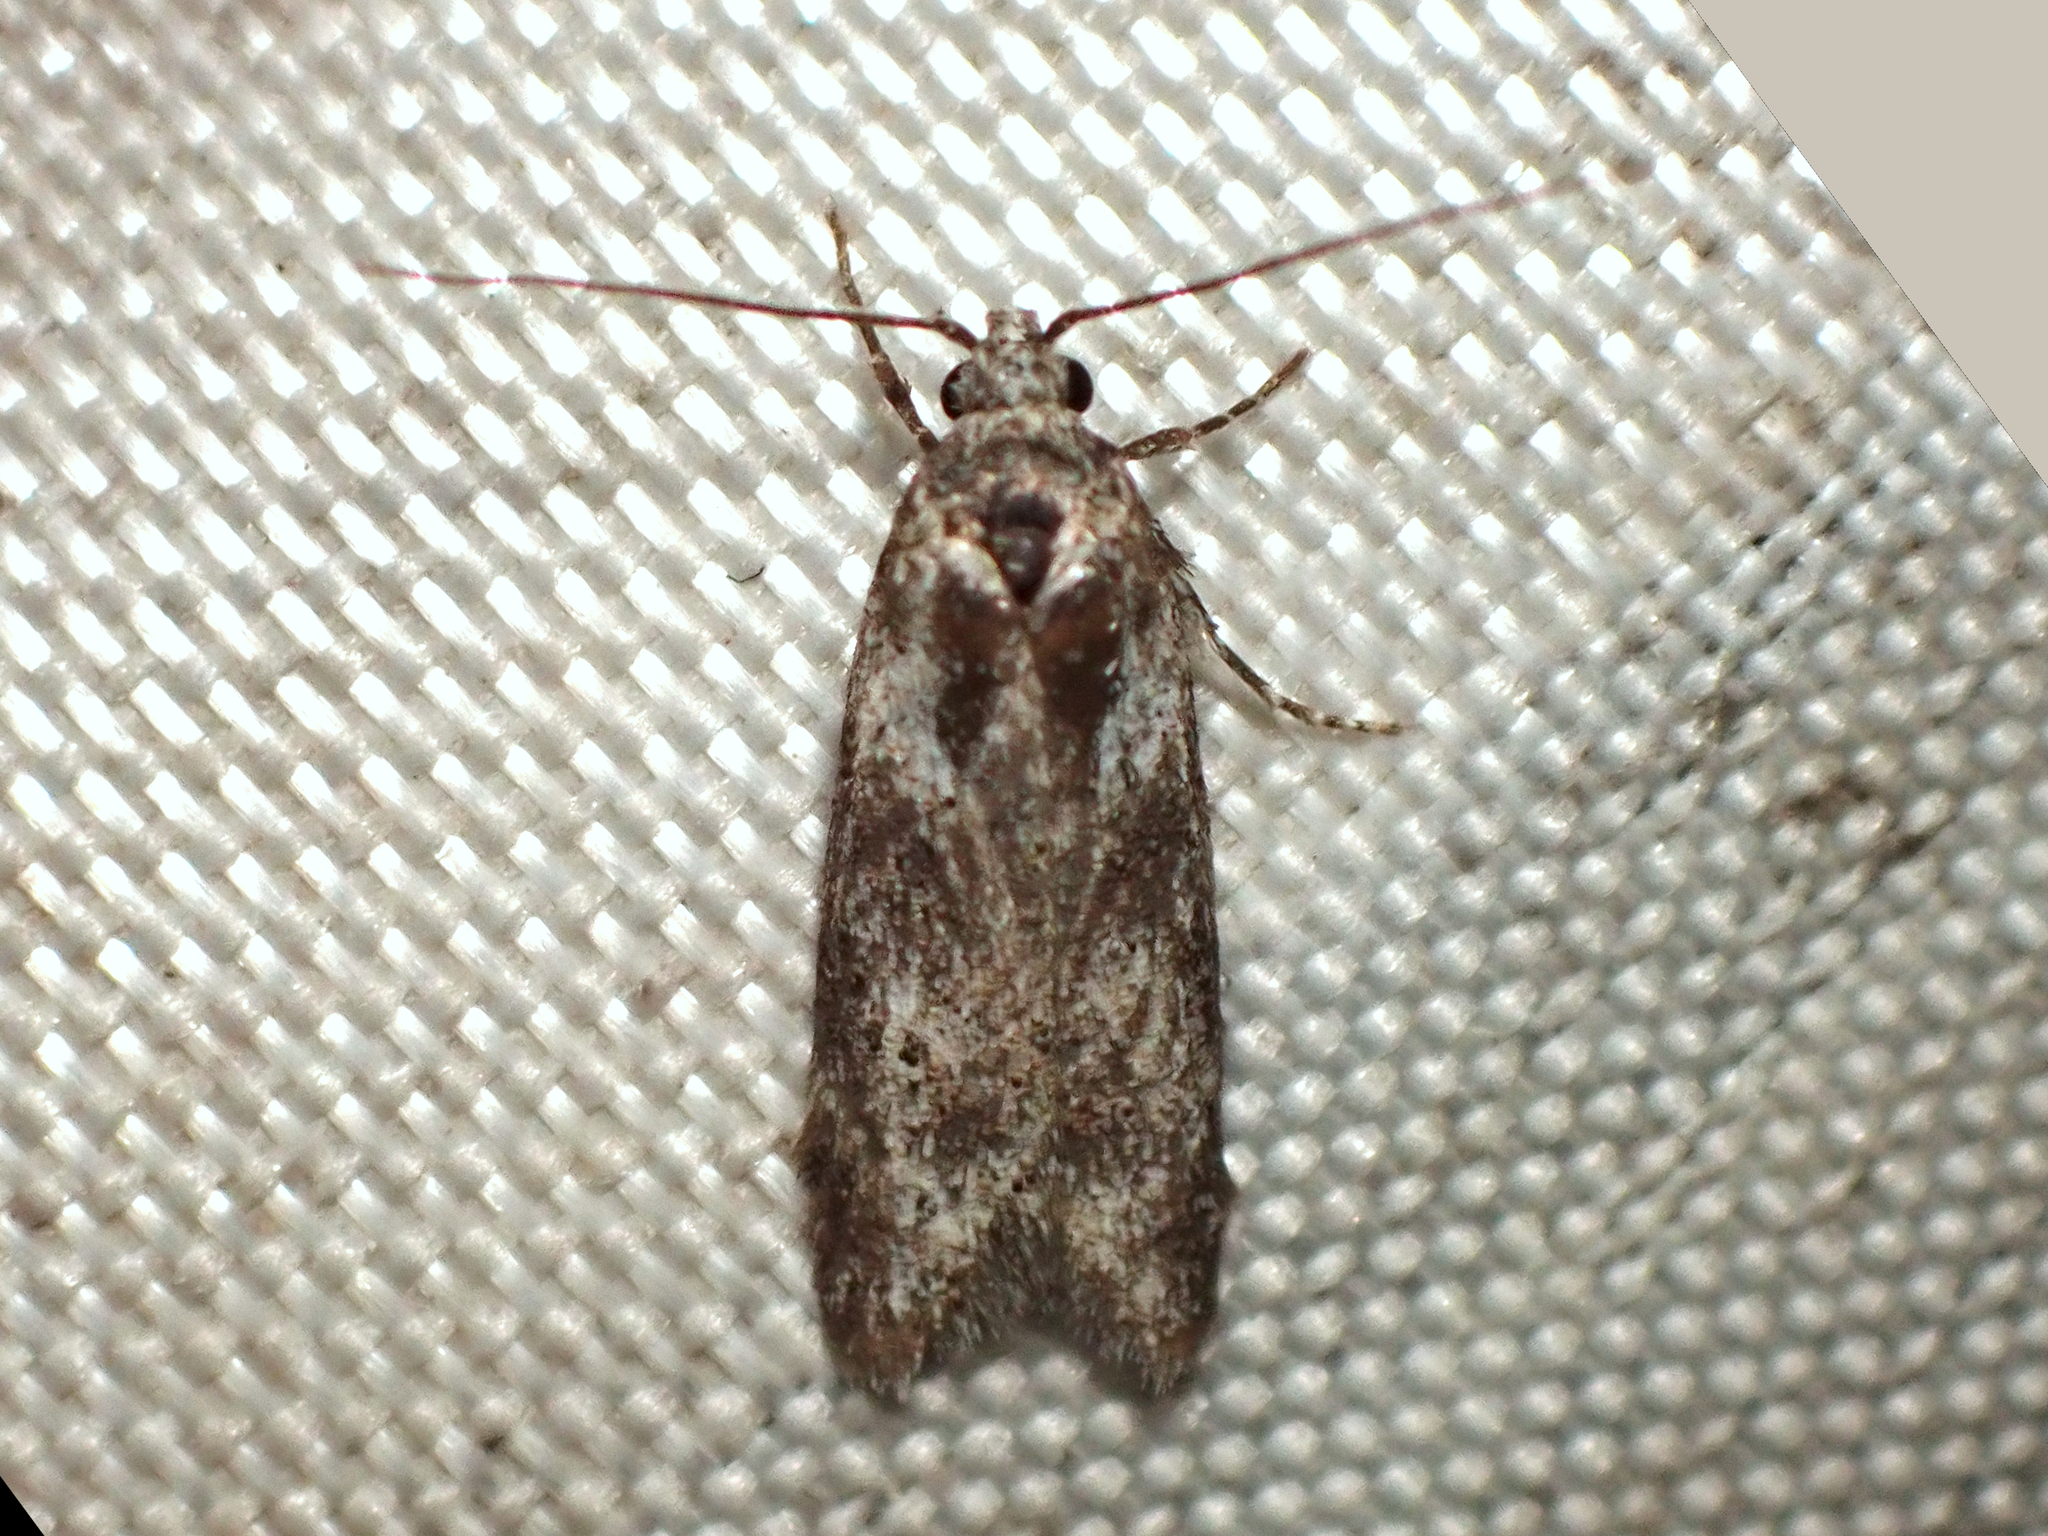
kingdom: Animalia
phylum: Arthropoda
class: Insecta
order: Lepidoptera
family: Oecophoridae
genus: Izatha
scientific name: Izatha convulsella
